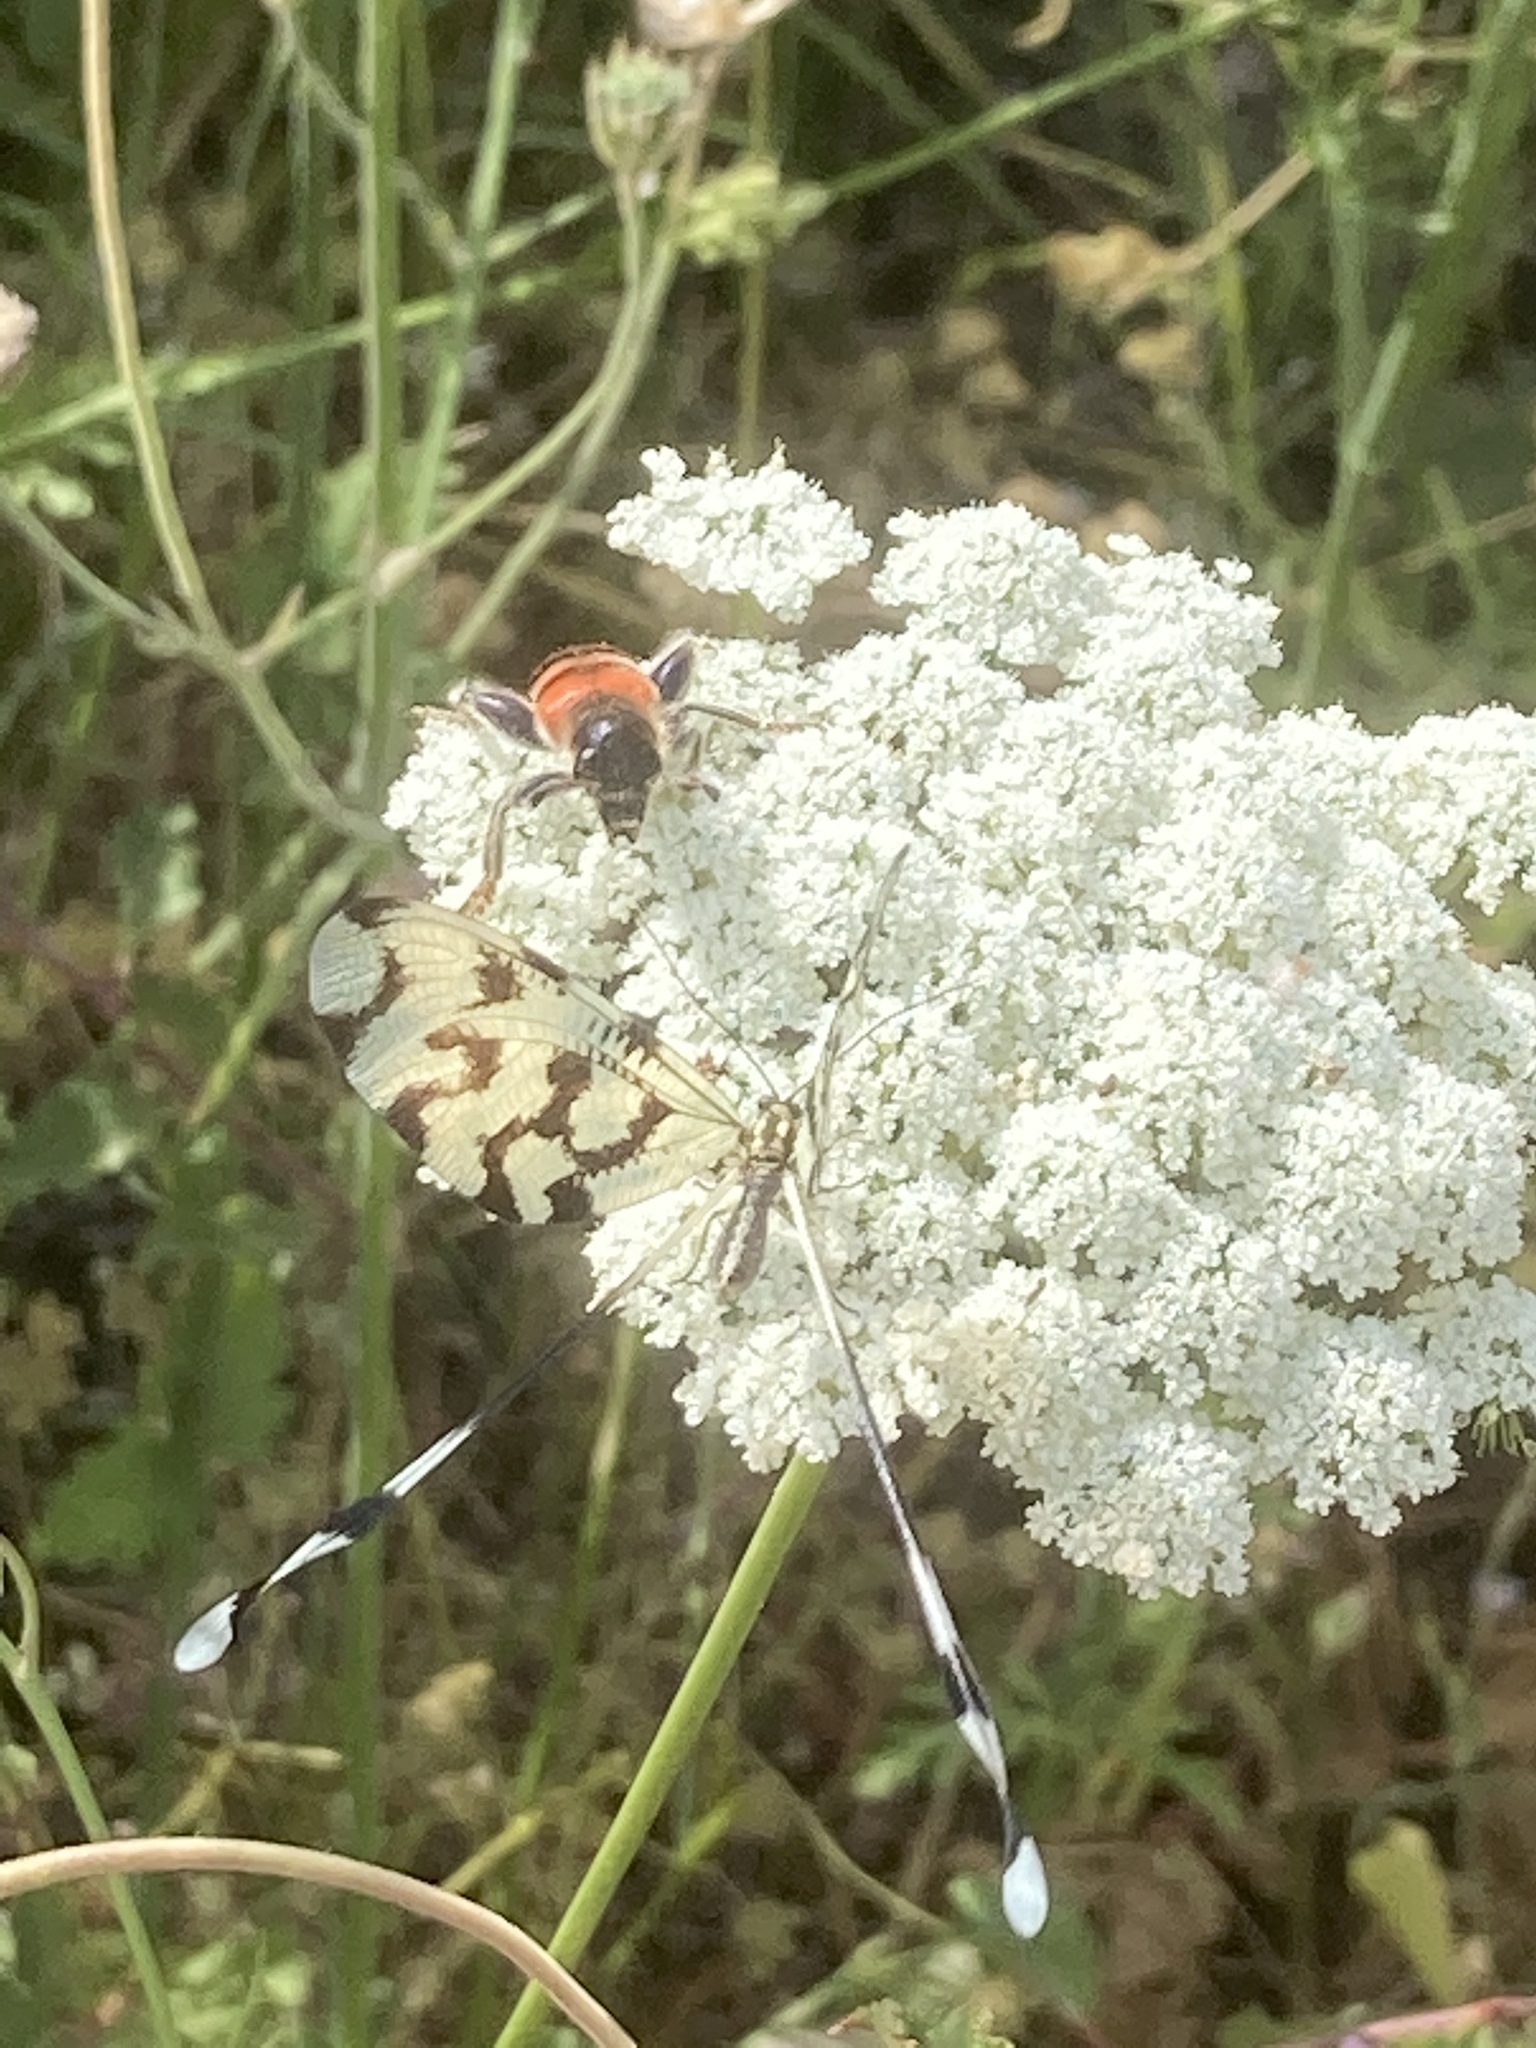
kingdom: Animalia
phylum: Arthropoda
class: Insecta
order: Coleoptera
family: Cleridae
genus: Trichodes
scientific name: Trichodes crabroniformis
